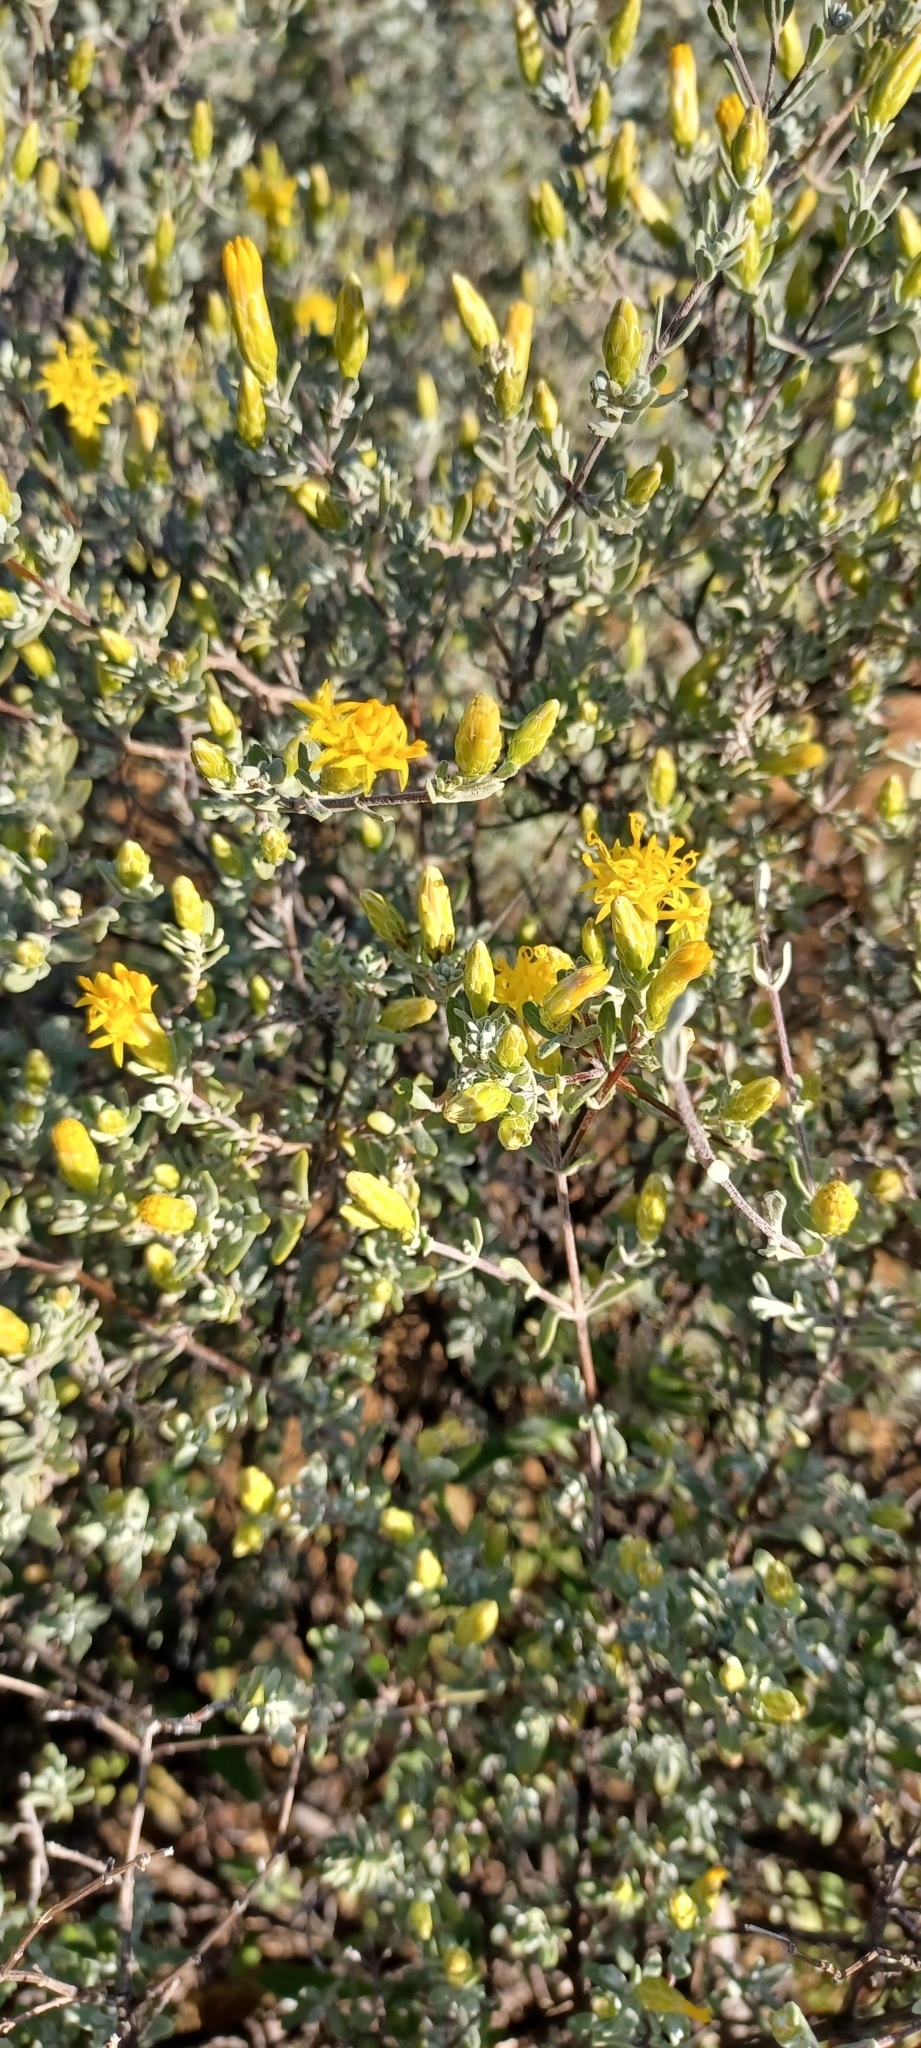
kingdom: Plantae
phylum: Tracheophyta
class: Magnoliopsida
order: Asterales
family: Asteraceae
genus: Pteronia
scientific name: Pteronia incana
